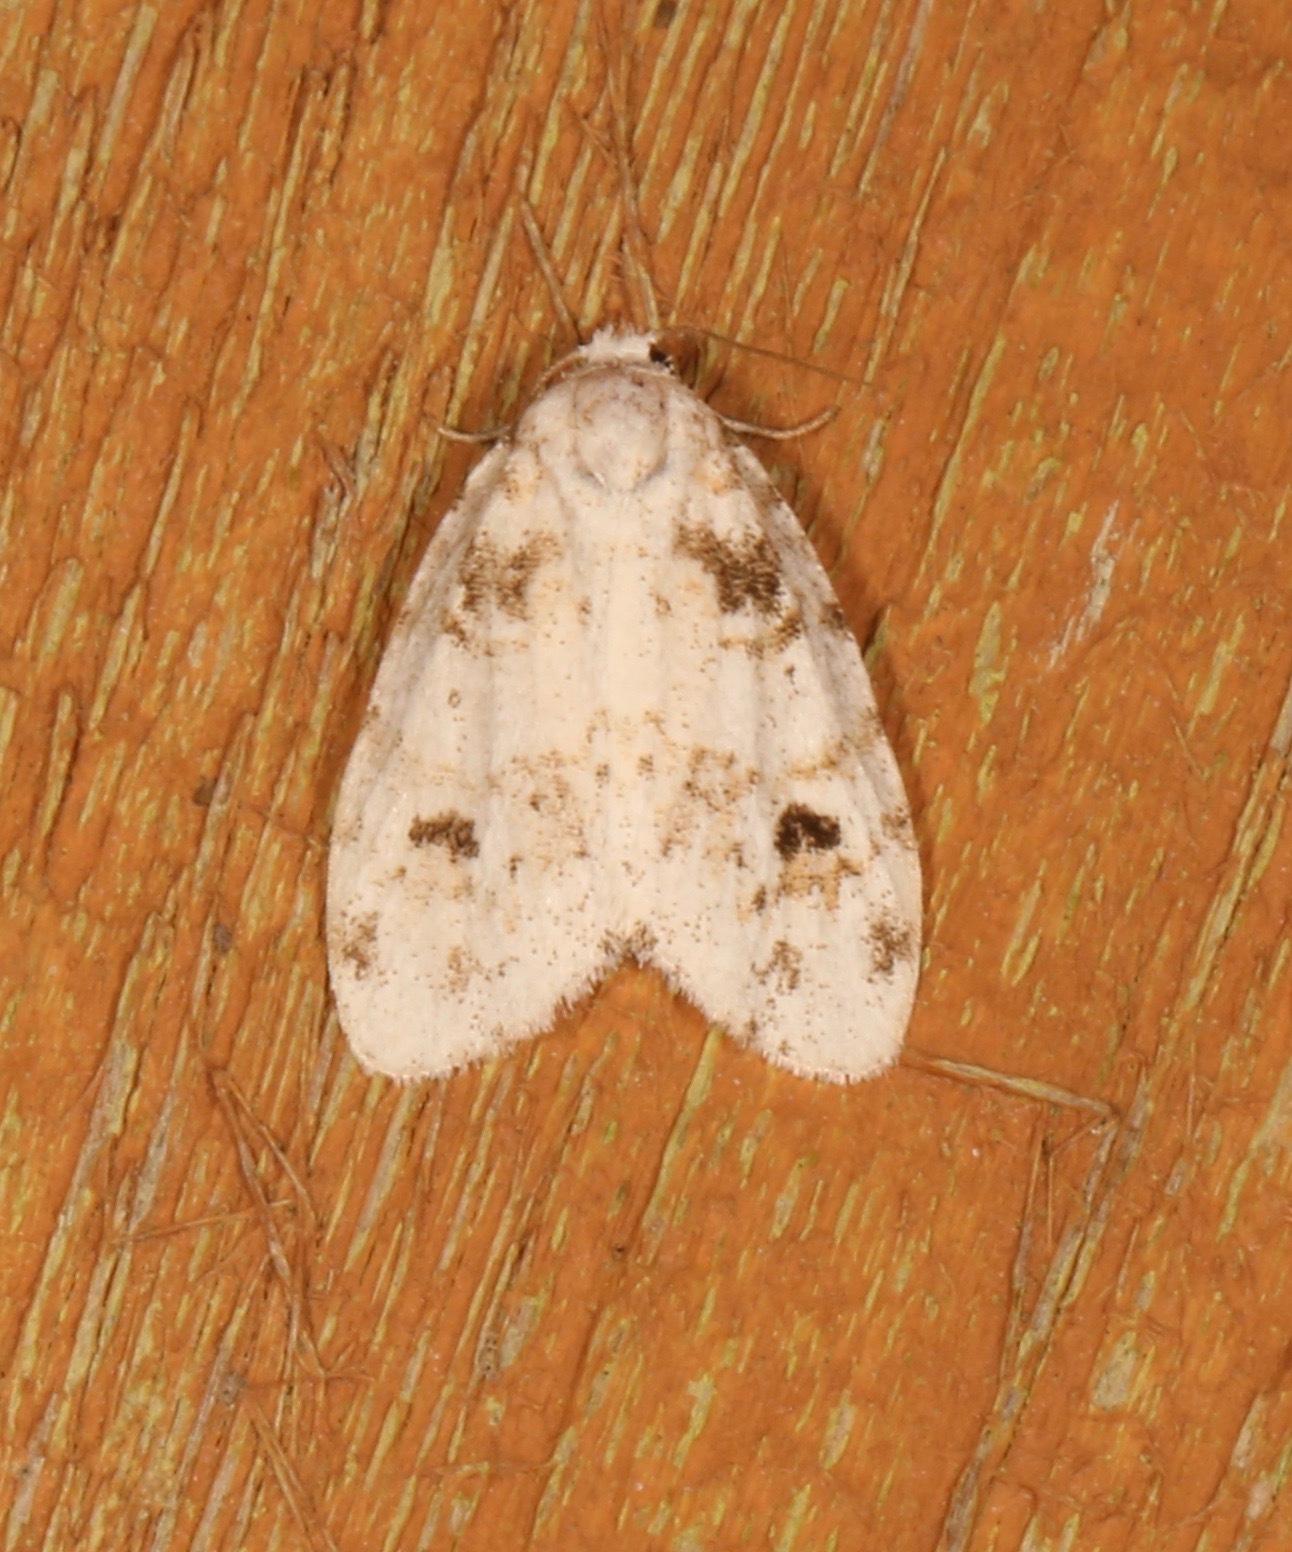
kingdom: Animalia
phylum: Arthropoda
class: Insecta
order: Lepidoptera
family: Erebidae
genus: Clemensia
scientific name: Clemensia ochreata
